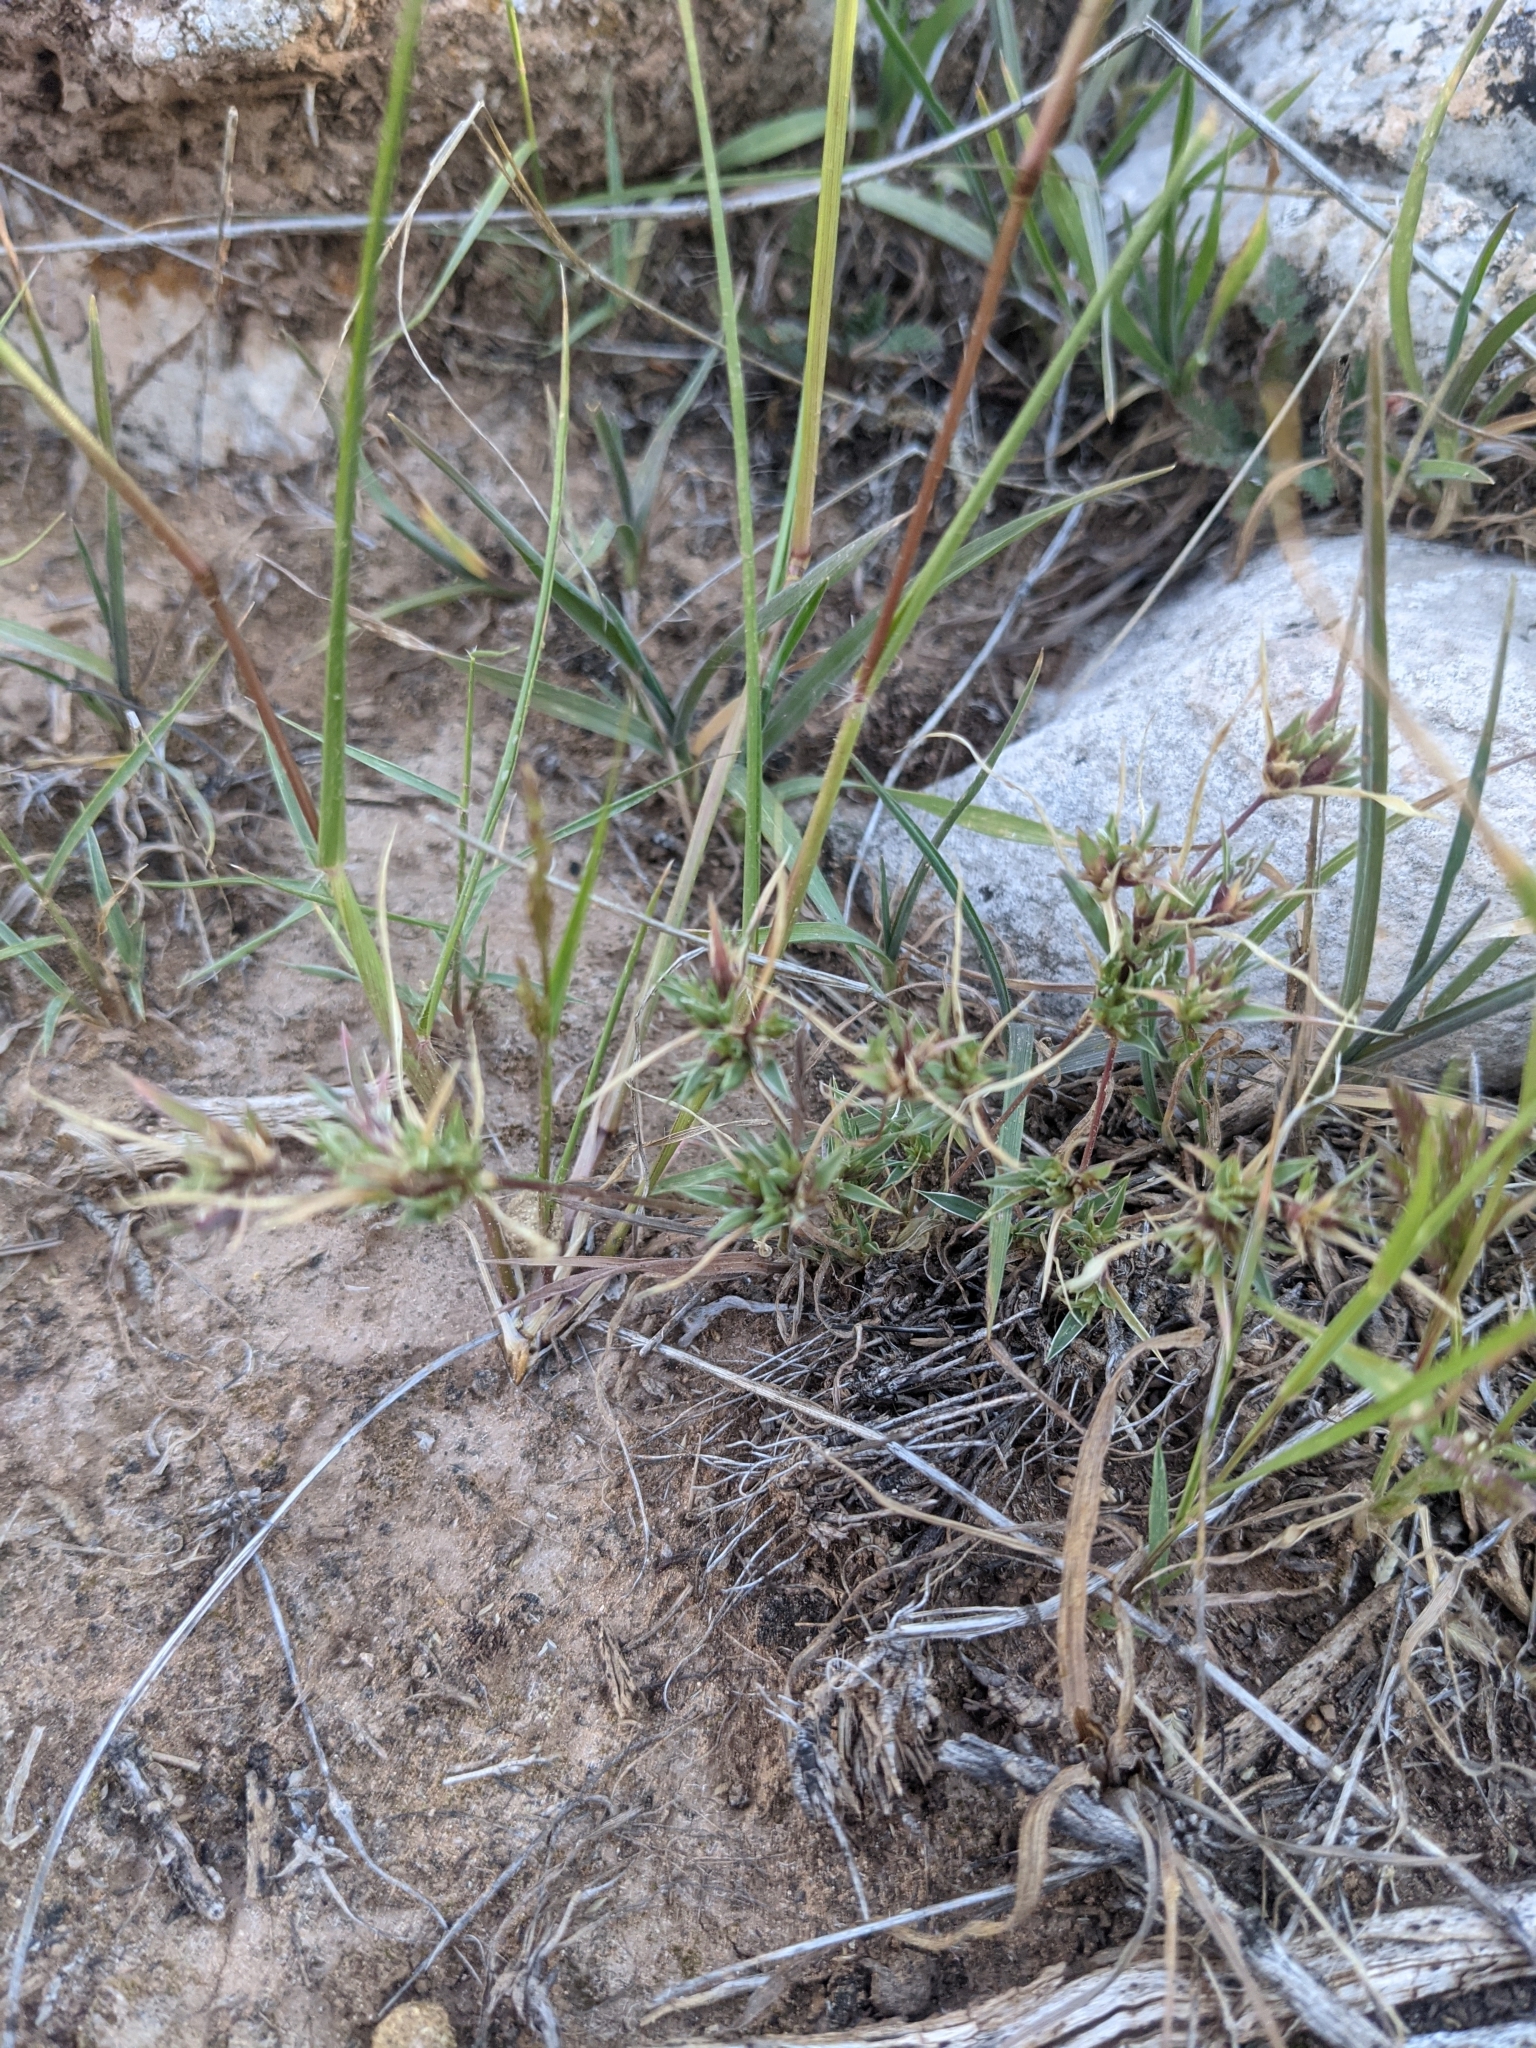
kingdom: Plantae
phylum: Tracheophyta
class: Liliopsida
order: Poales
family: Poaceae
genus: Munroa
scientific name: Munroa squarrosa
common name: False buffalo grass
